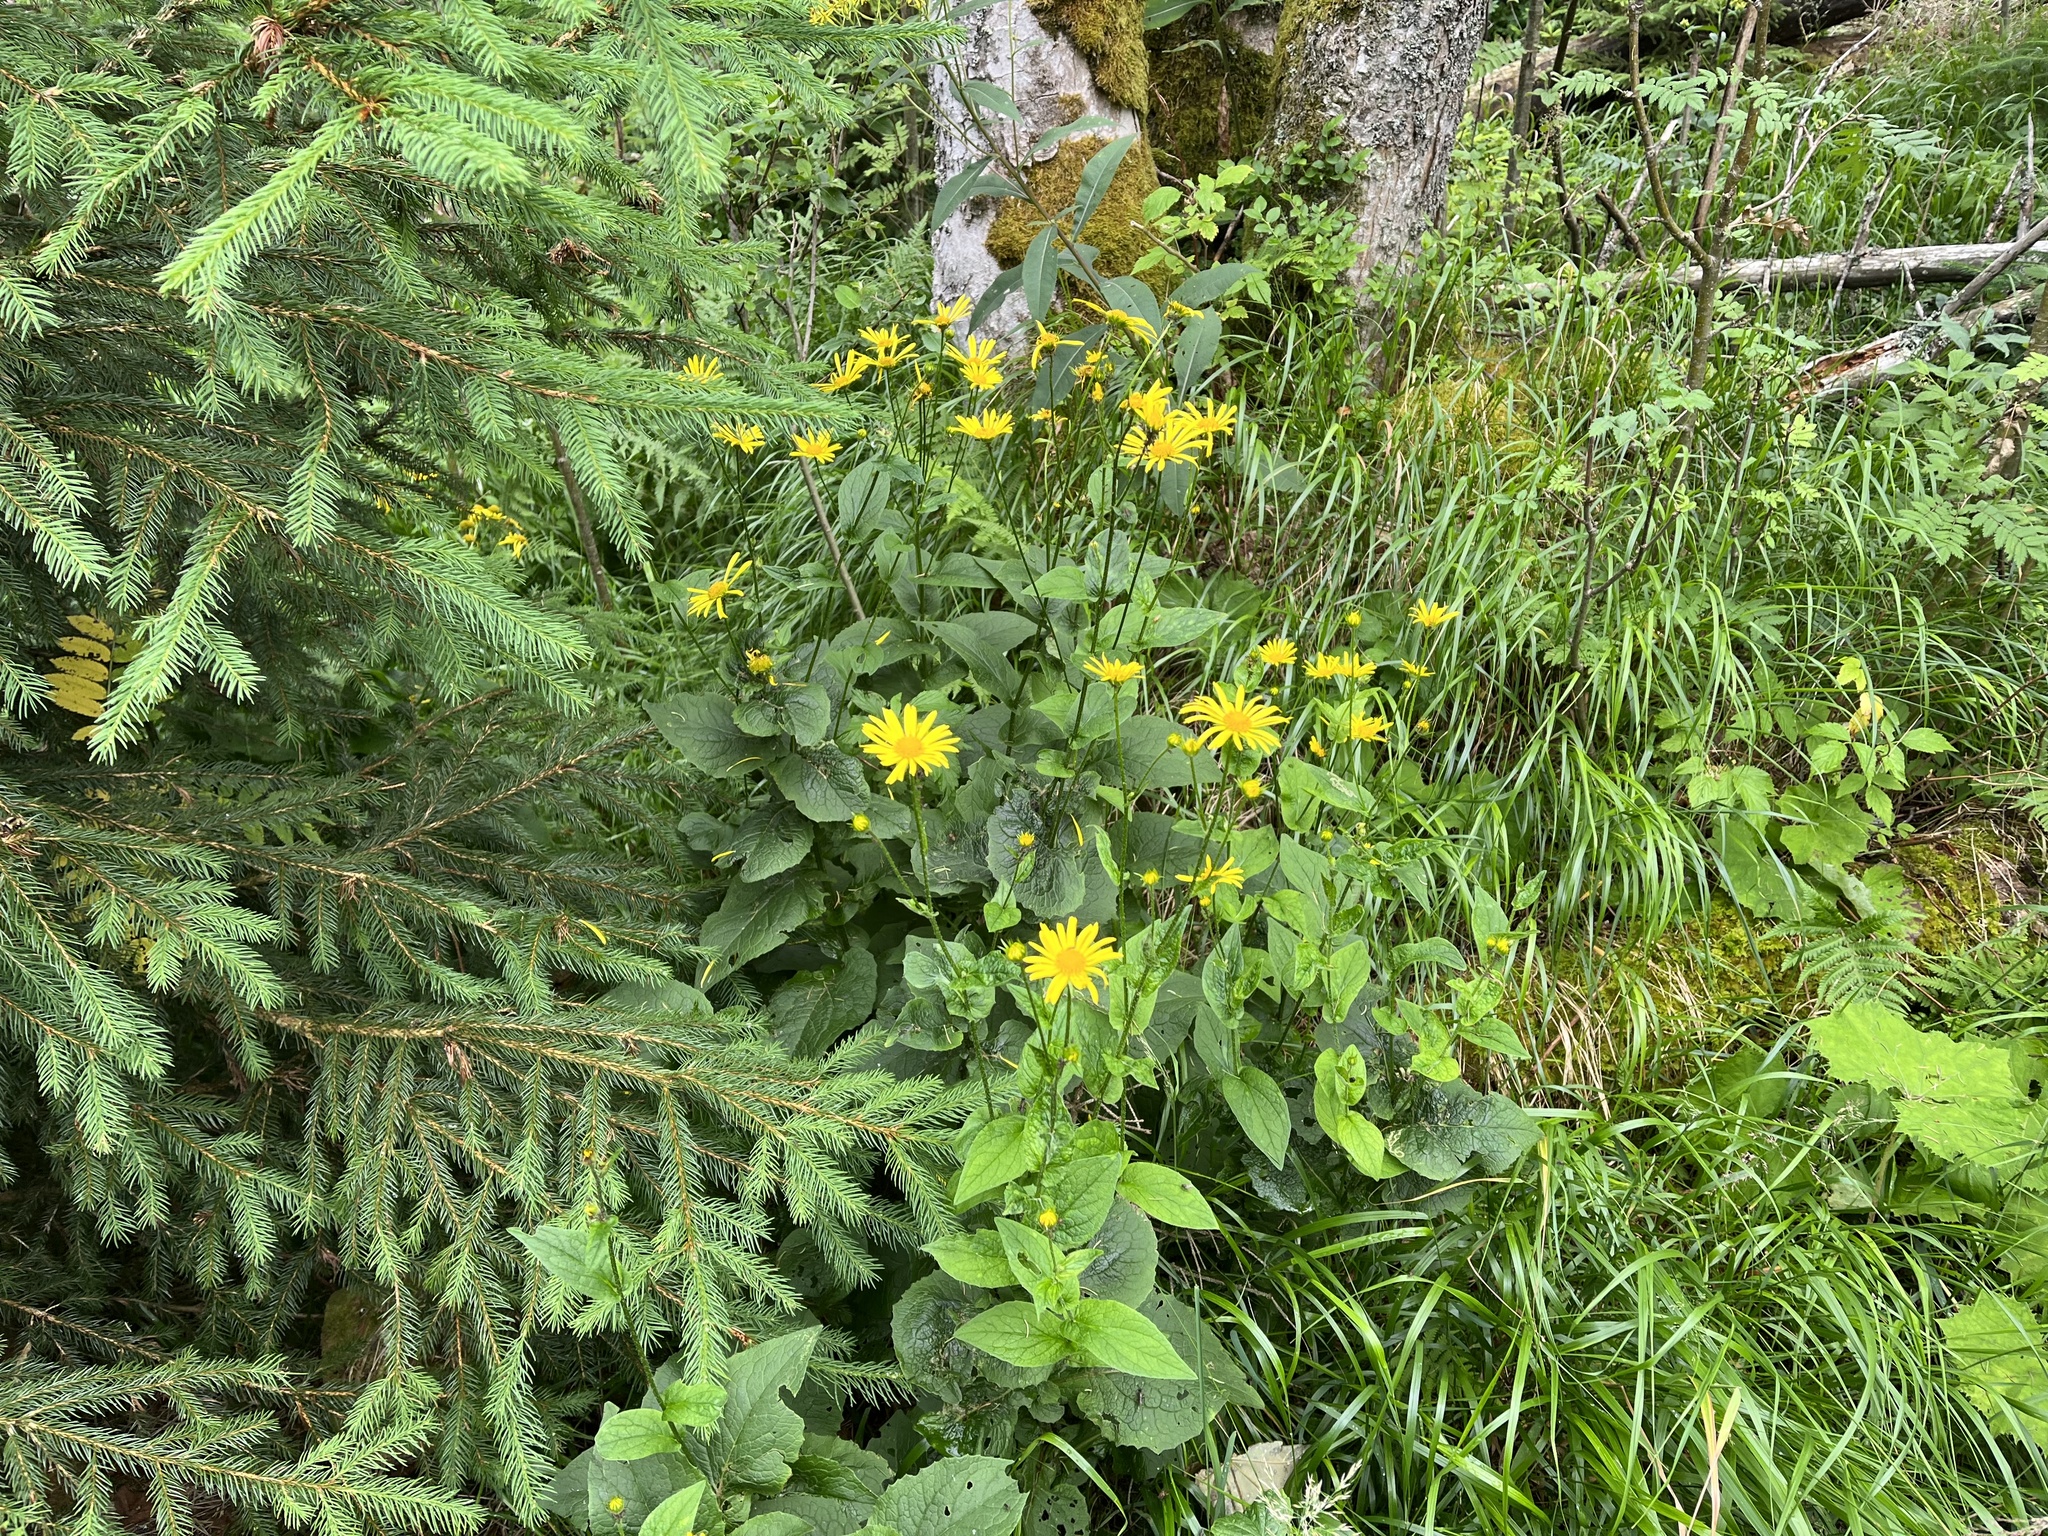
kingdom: Plantae
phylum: Tracheophyta
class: Magnoliopsida
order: Asterales
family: Asteraceae
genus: Doronicum
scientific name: Doronicum austriacum
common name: Austrian leopard's-bane
